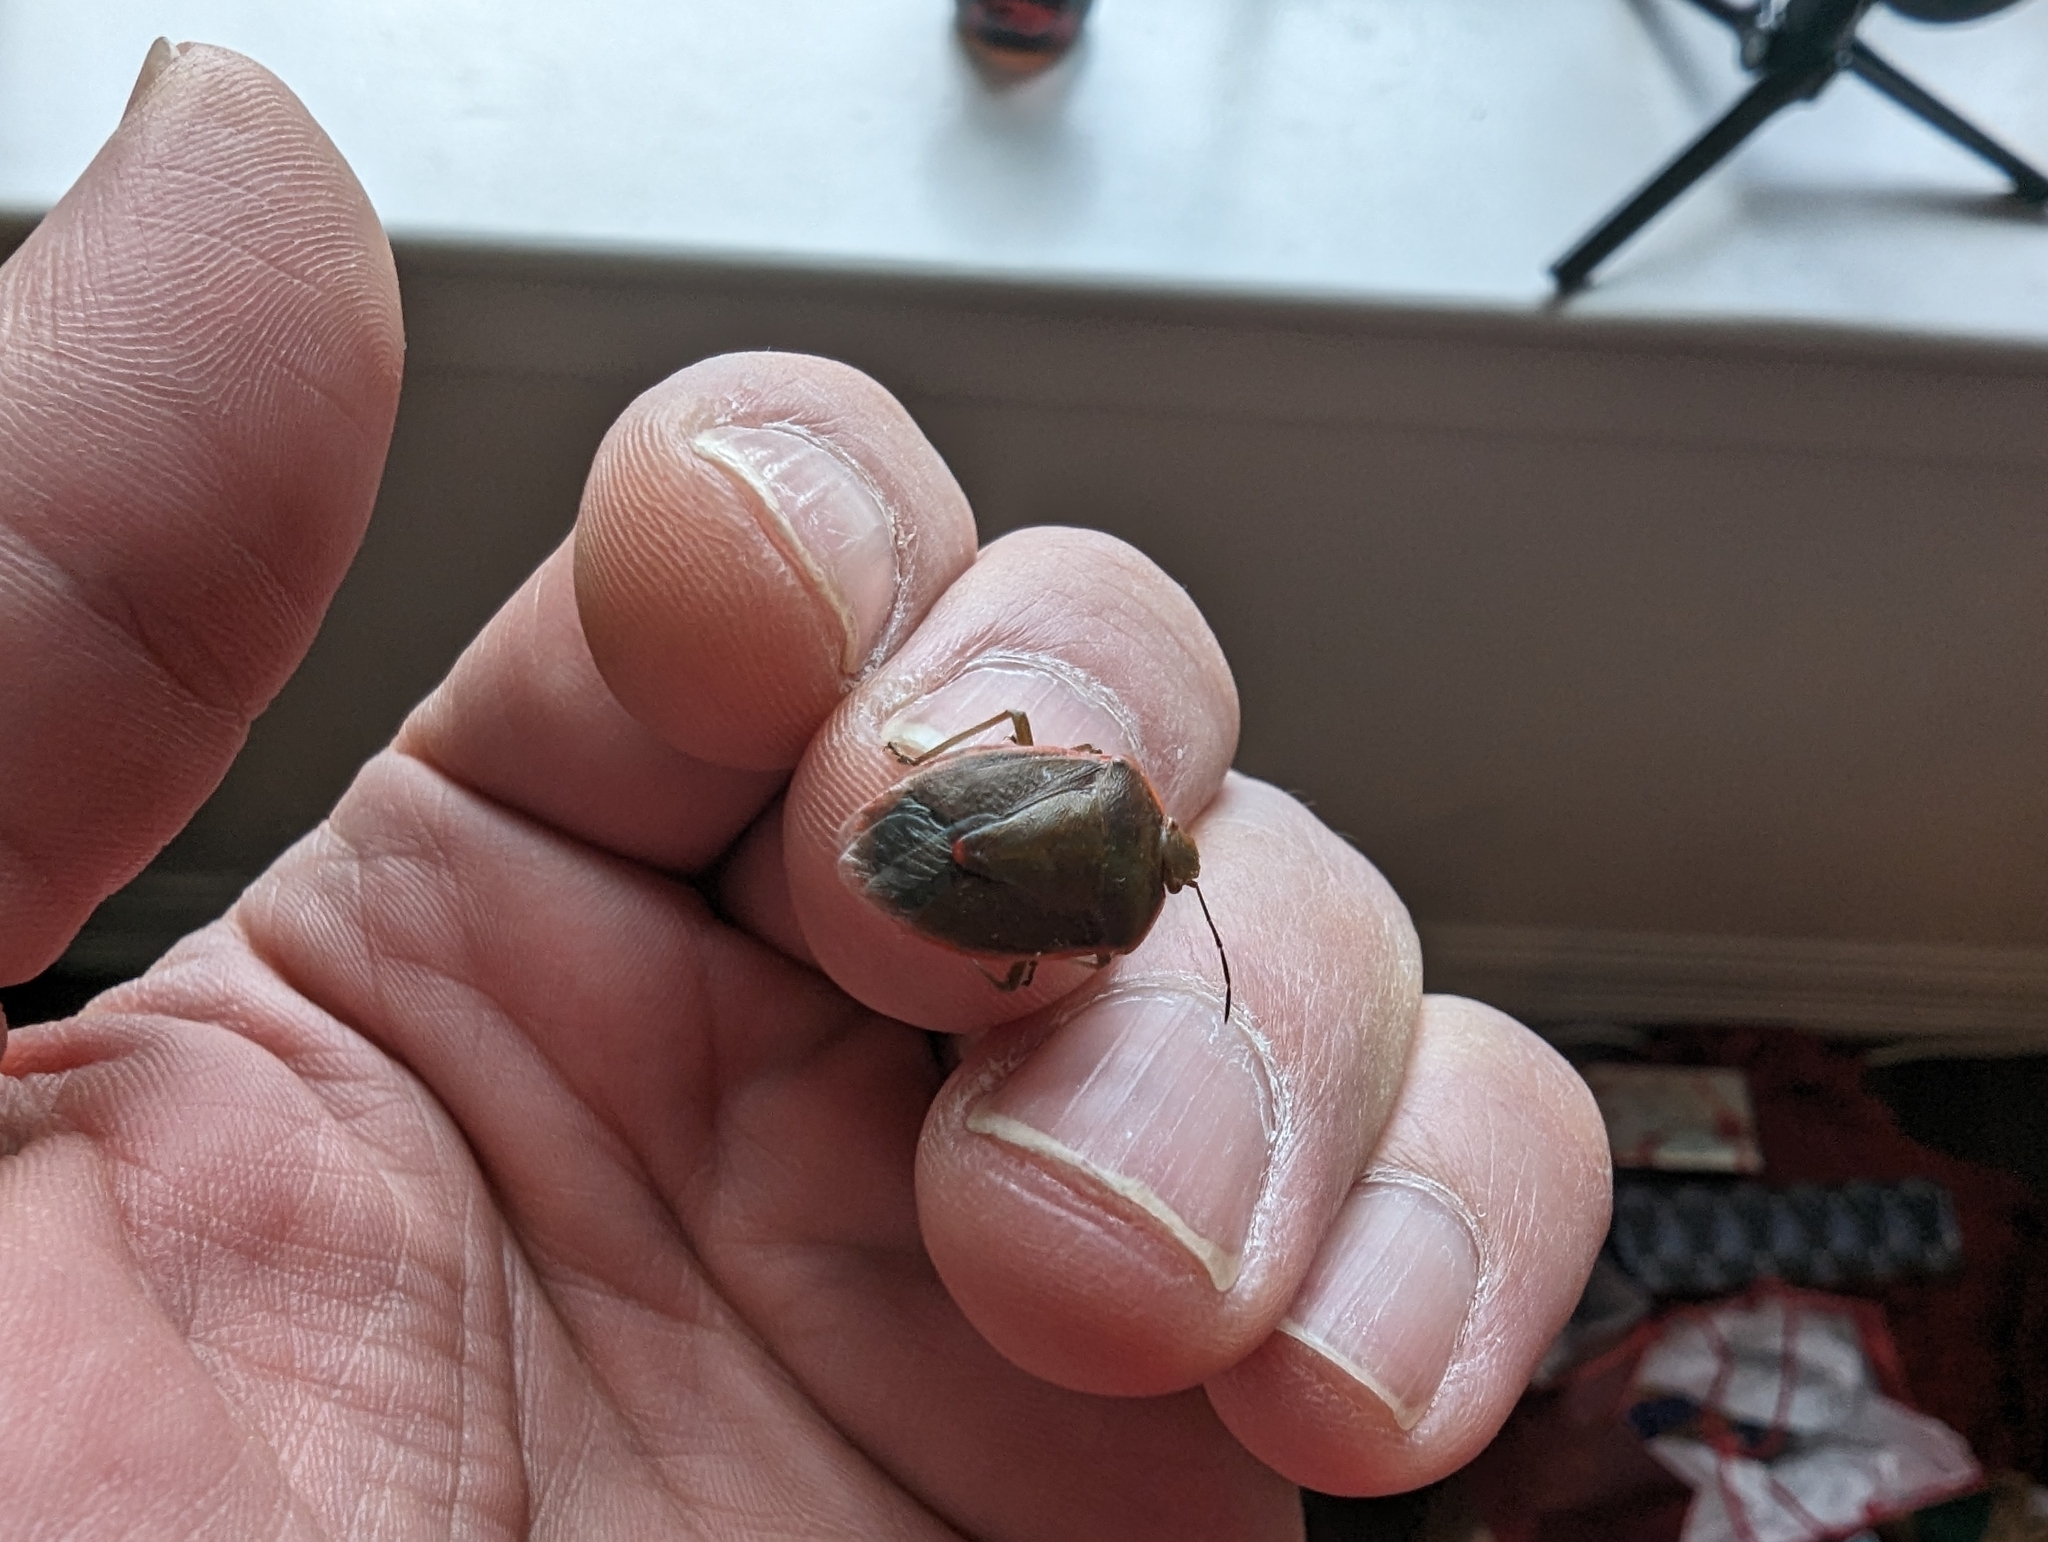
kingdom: Animalia
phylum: Arthropoda
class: Insecta
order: Hemiptera
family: Pentatomidae
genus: Chlorochroa
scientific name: Chlorochroa persimilis
